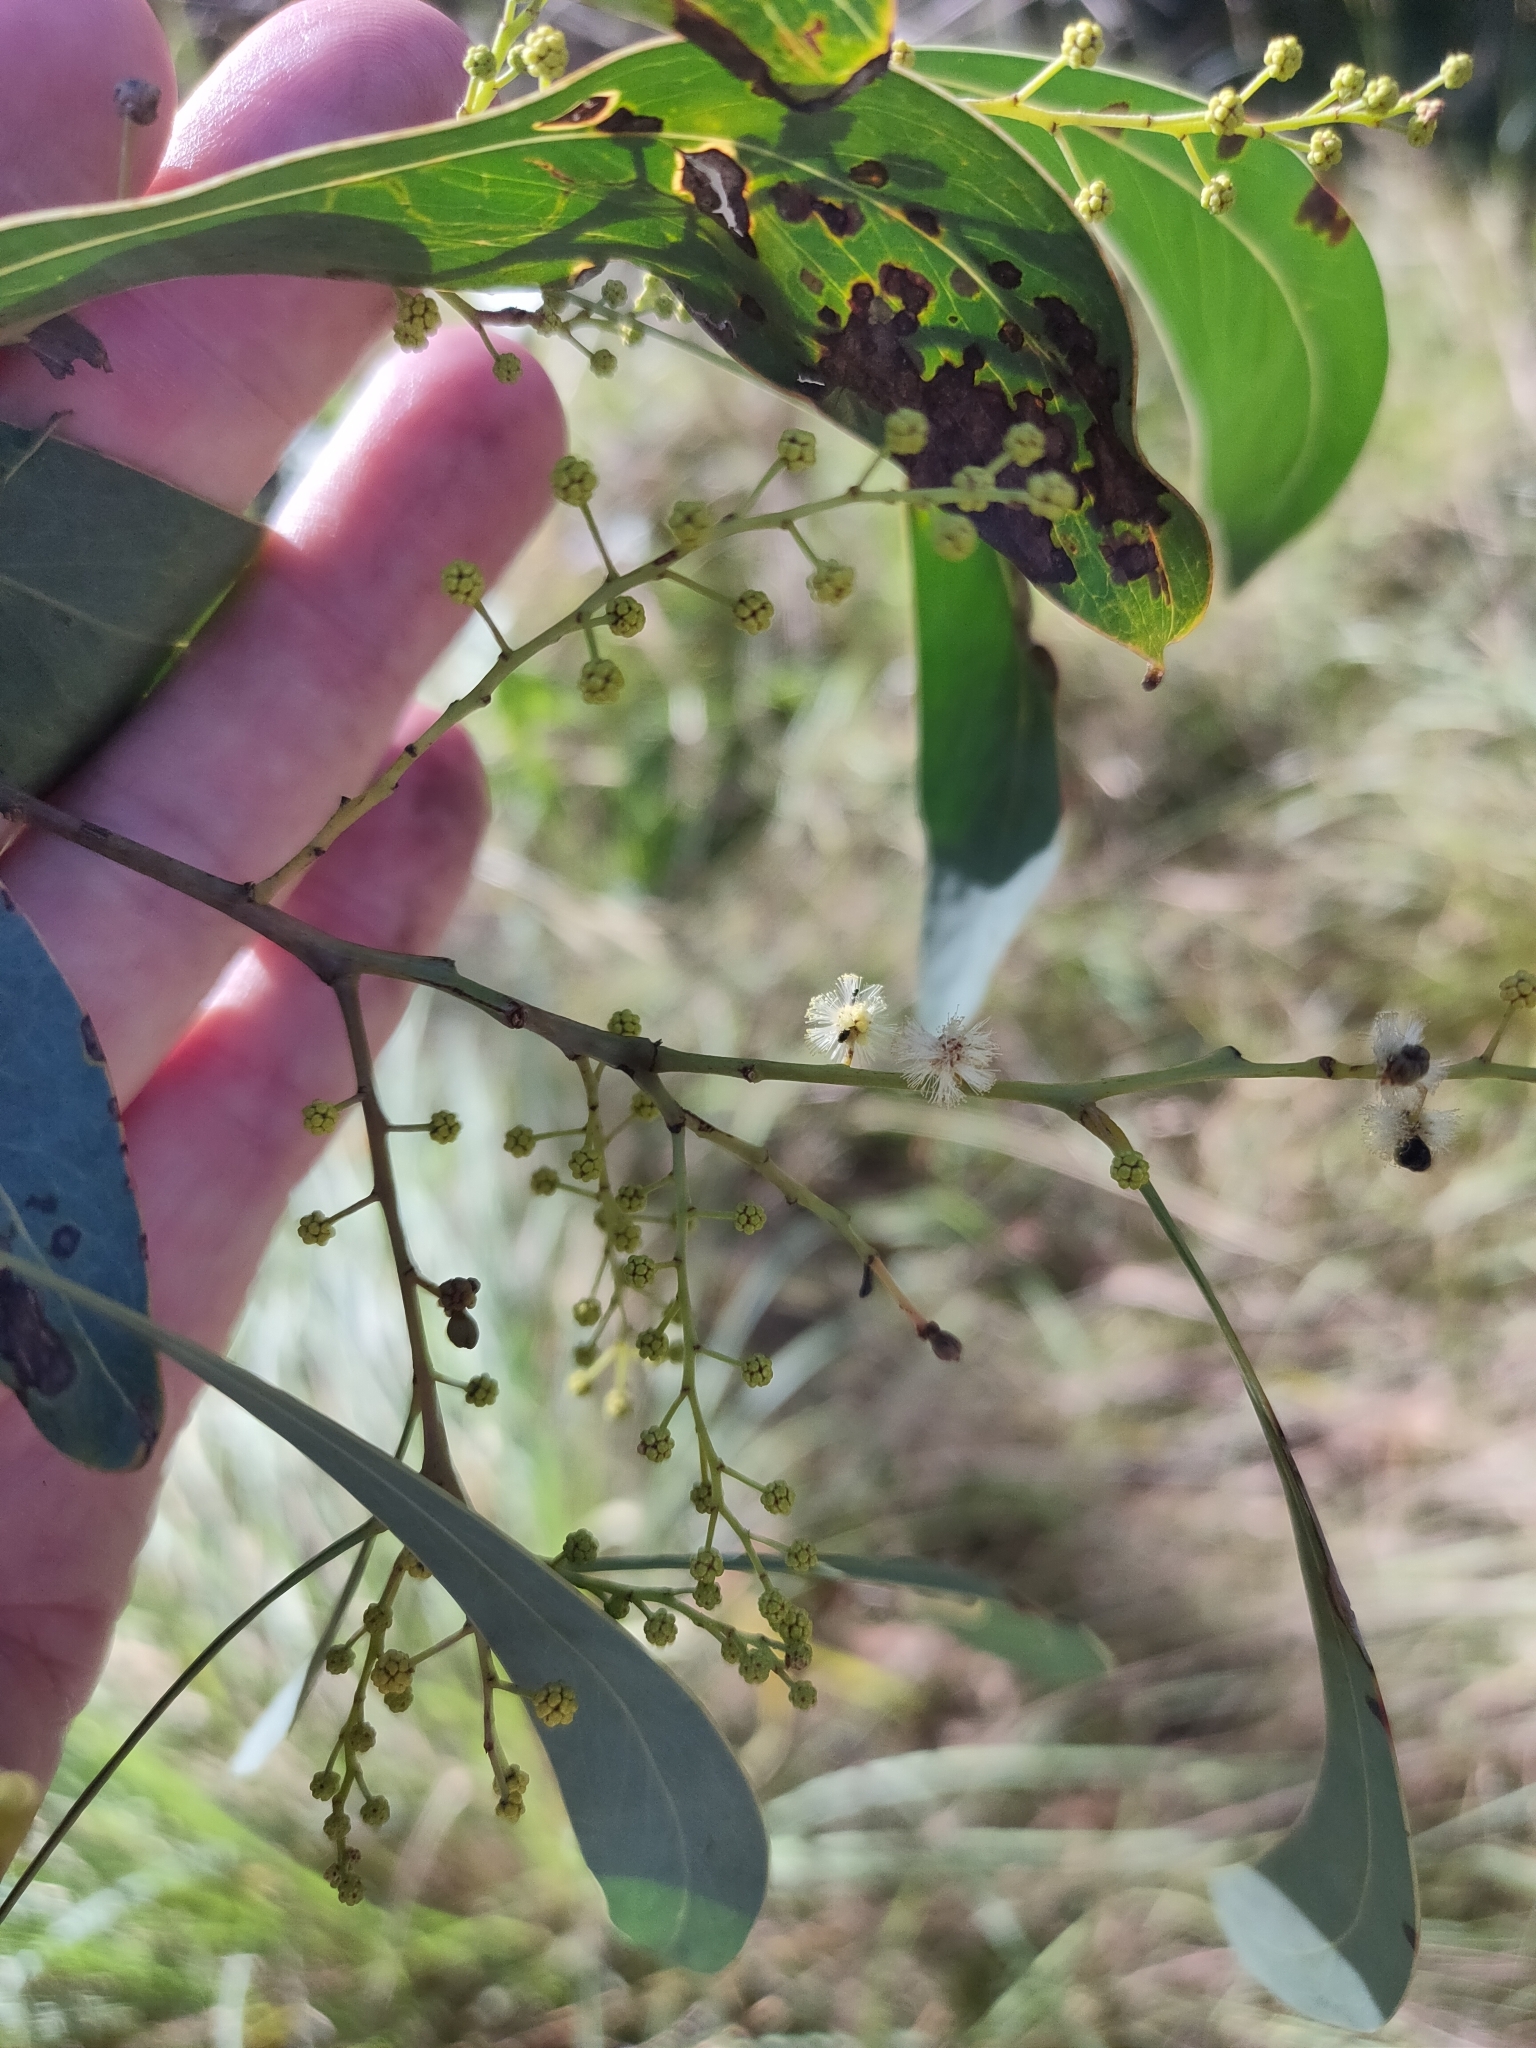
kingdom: Plantae
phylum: Tracheophyta
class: Magnoliopsida
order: Fabales
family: Fabaceae
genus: Acacia
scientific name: Acacia falcata
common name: Burra acacia
